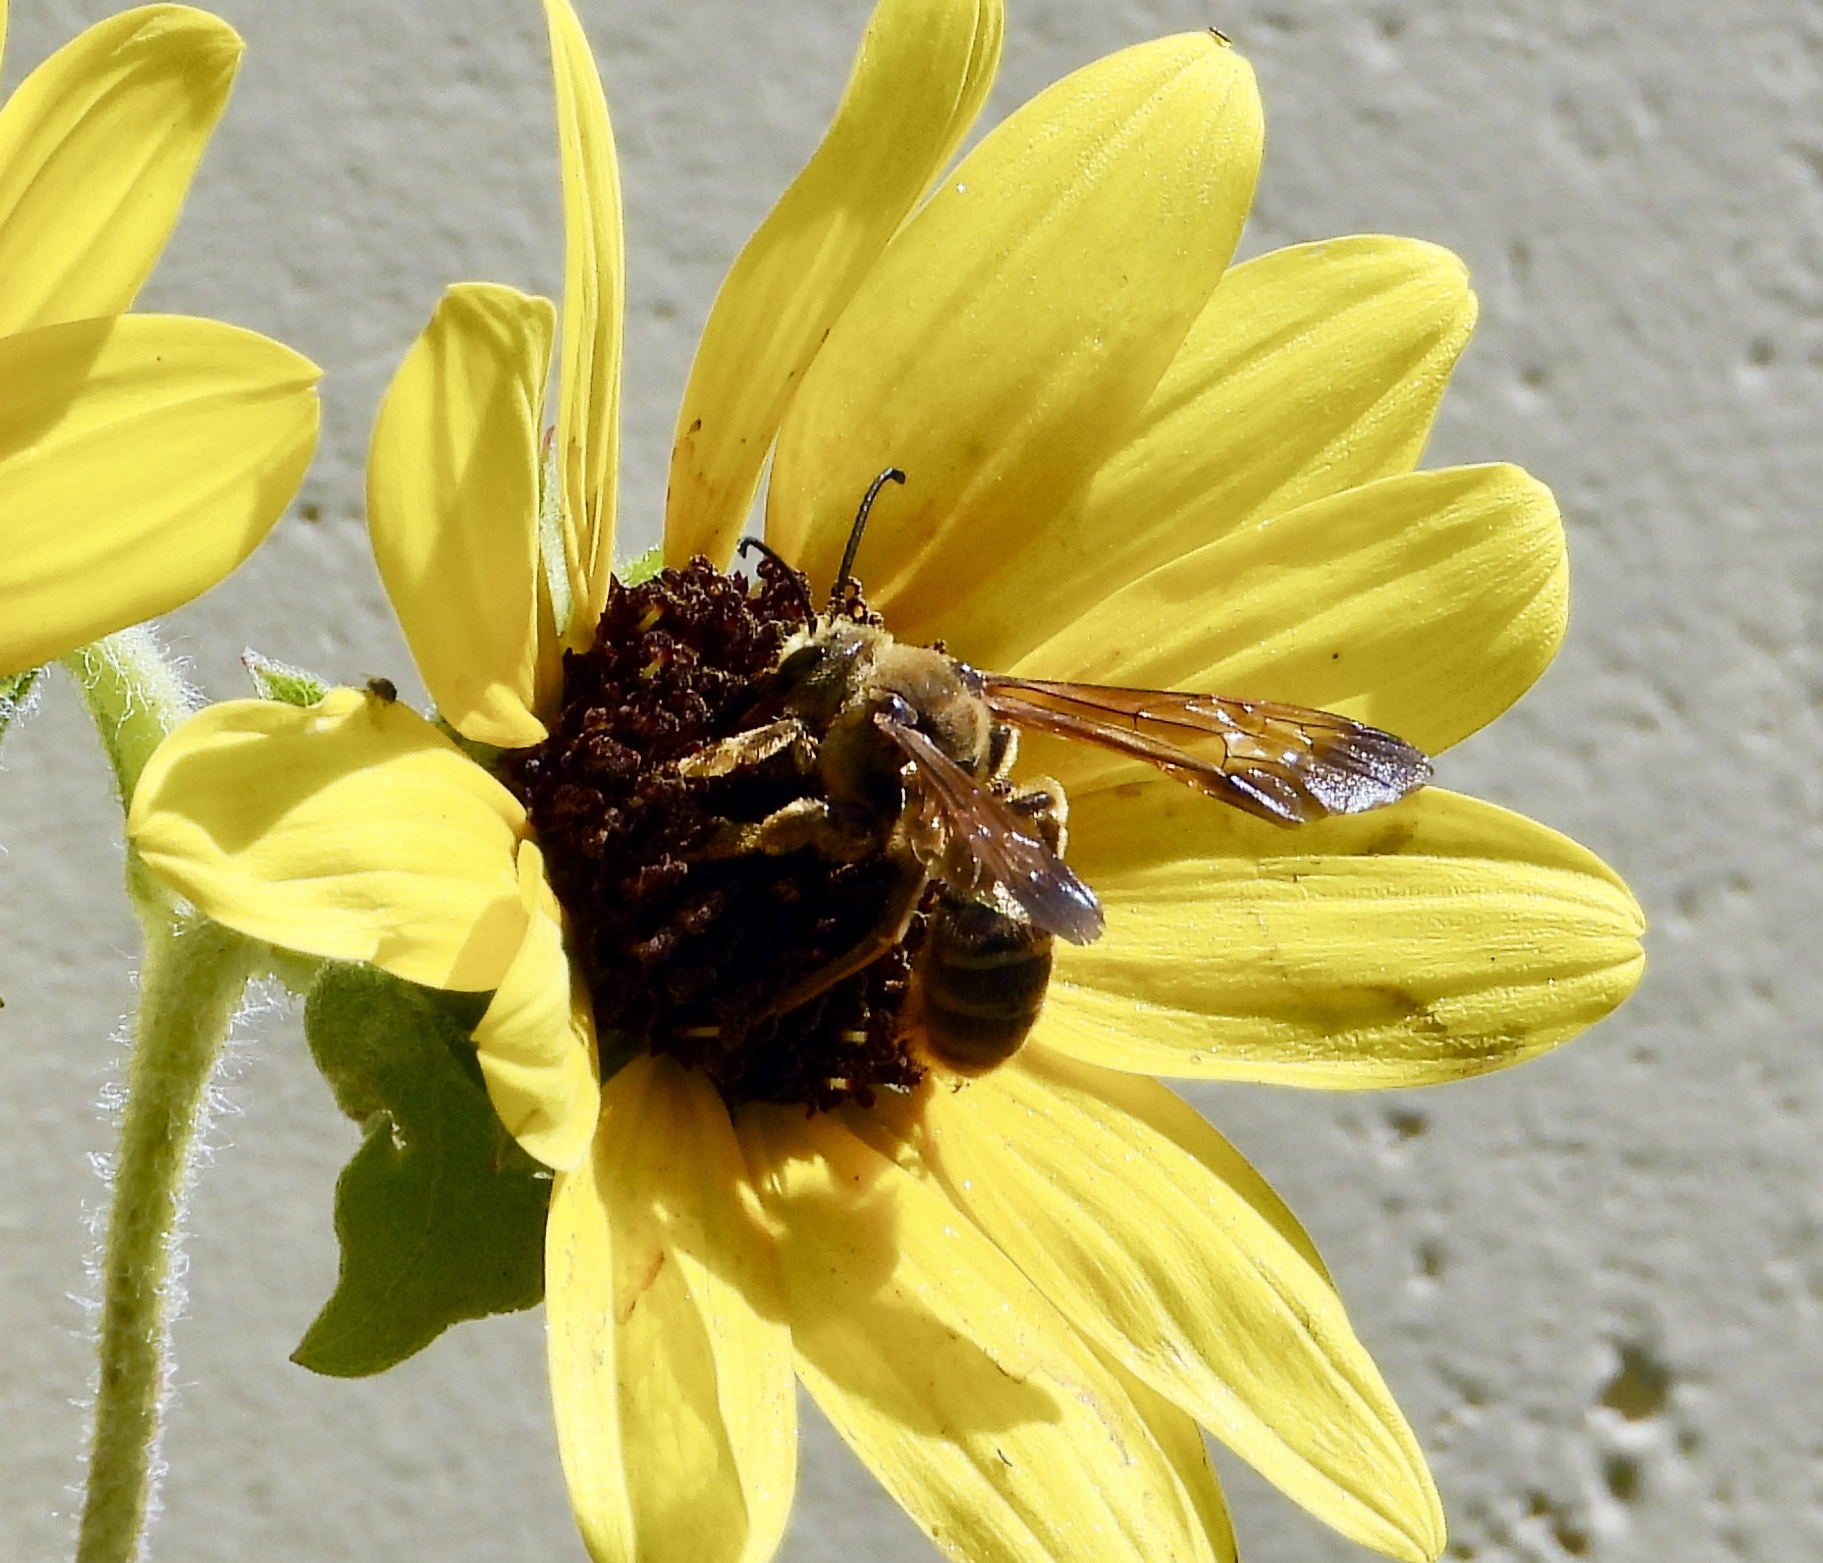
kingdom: Animalia
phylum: Arthropoda
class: Insecta
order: Hymenoptera
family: Halictidae
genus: Dieunomia
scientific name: Dieunomia heteropoda
